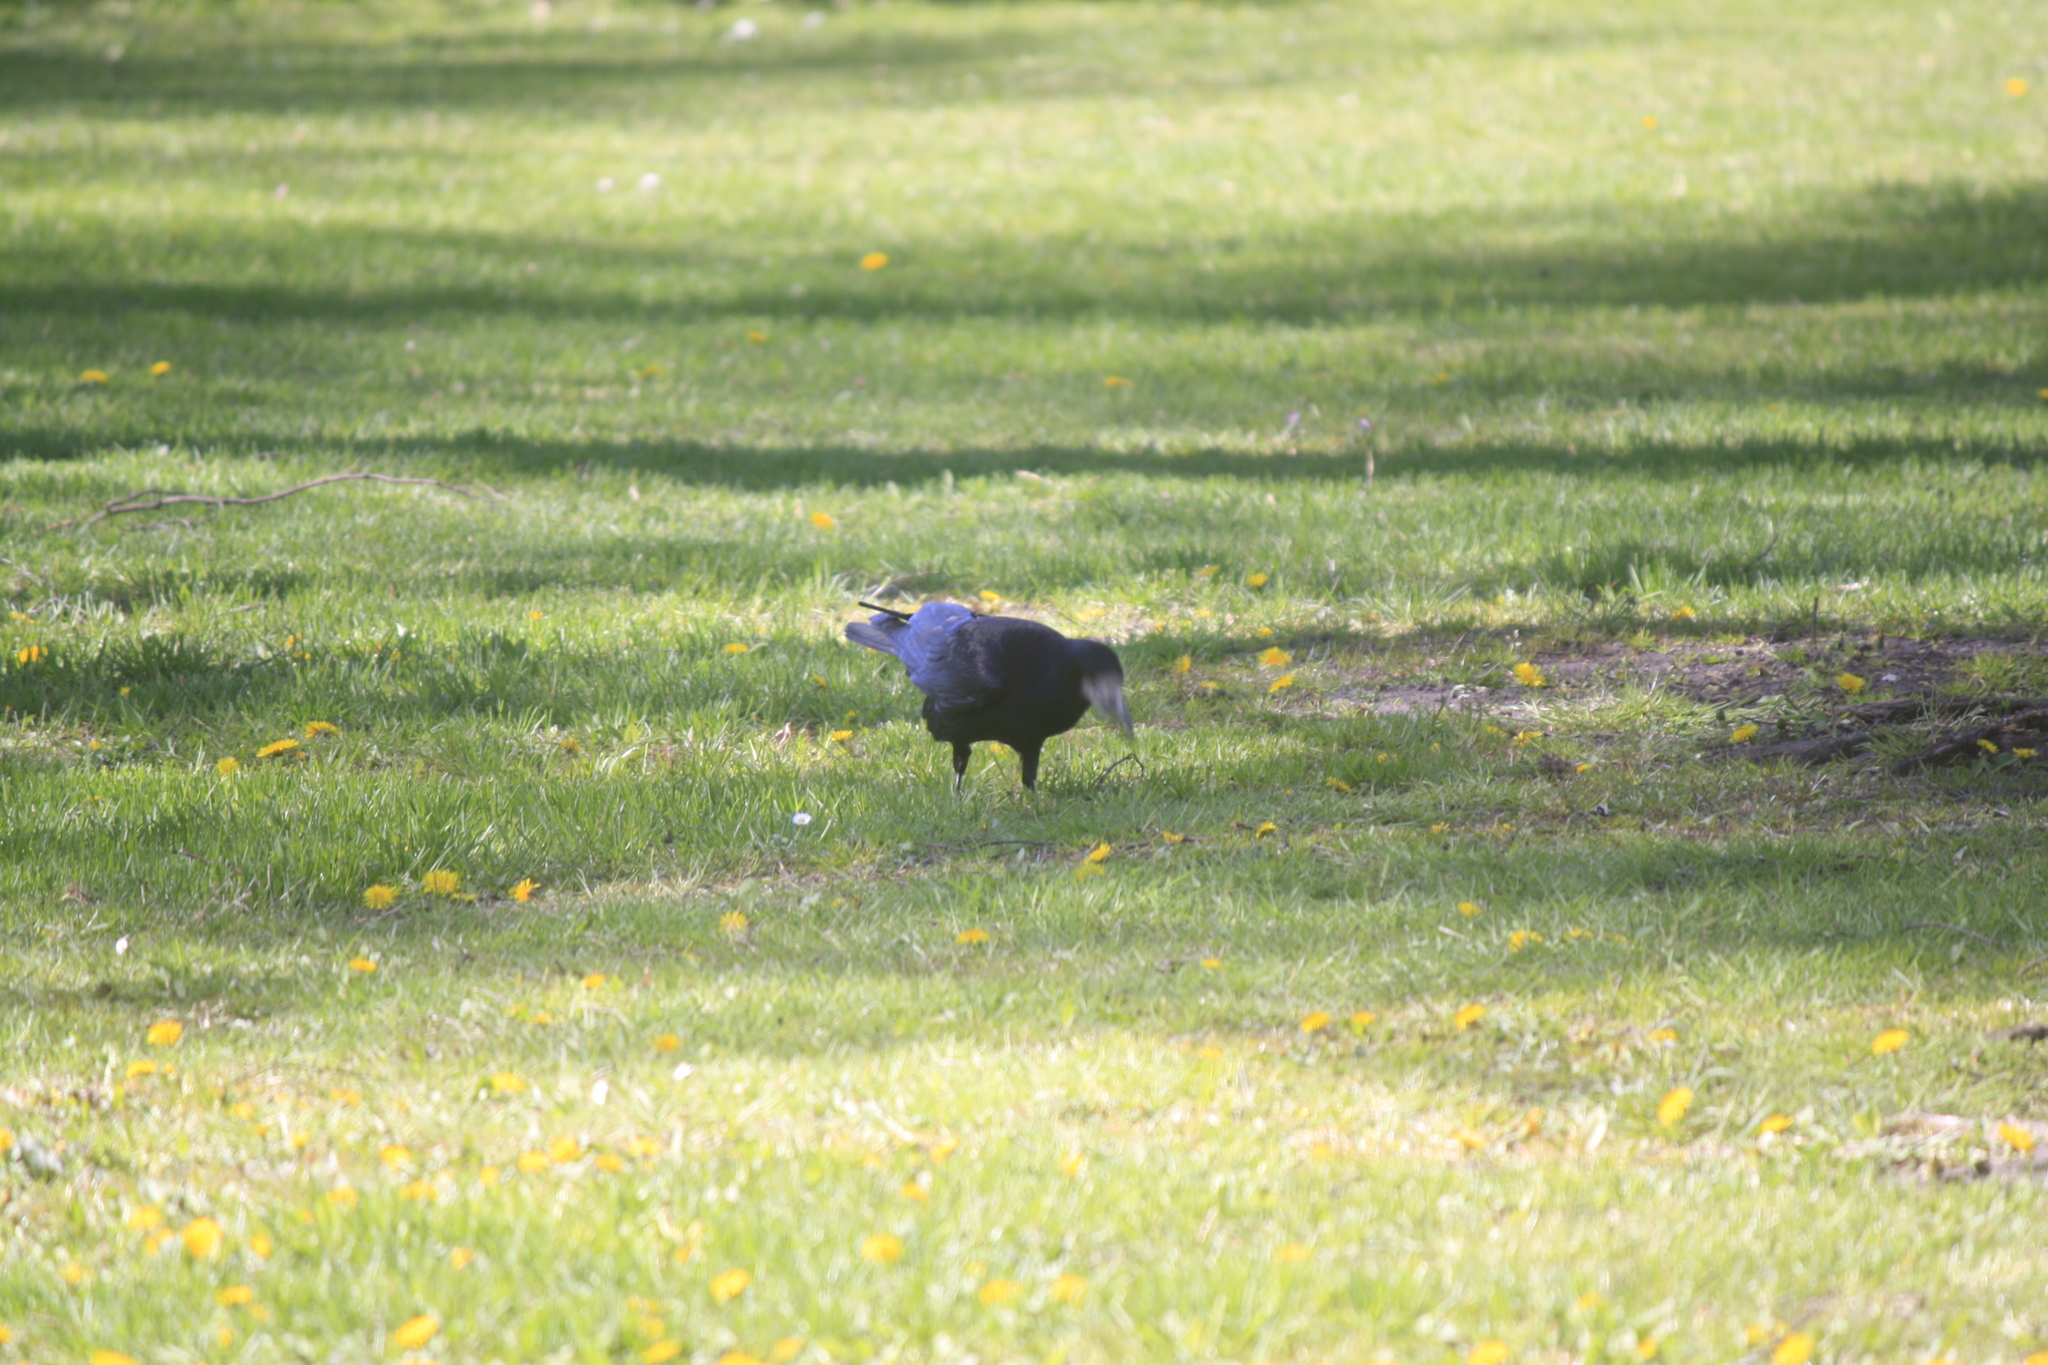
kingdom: Animalia
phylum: Chordata
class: Aves
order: Passeriformes
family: Corvidae
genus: Corvus
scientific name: Corvus frugilegus
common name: Rook
